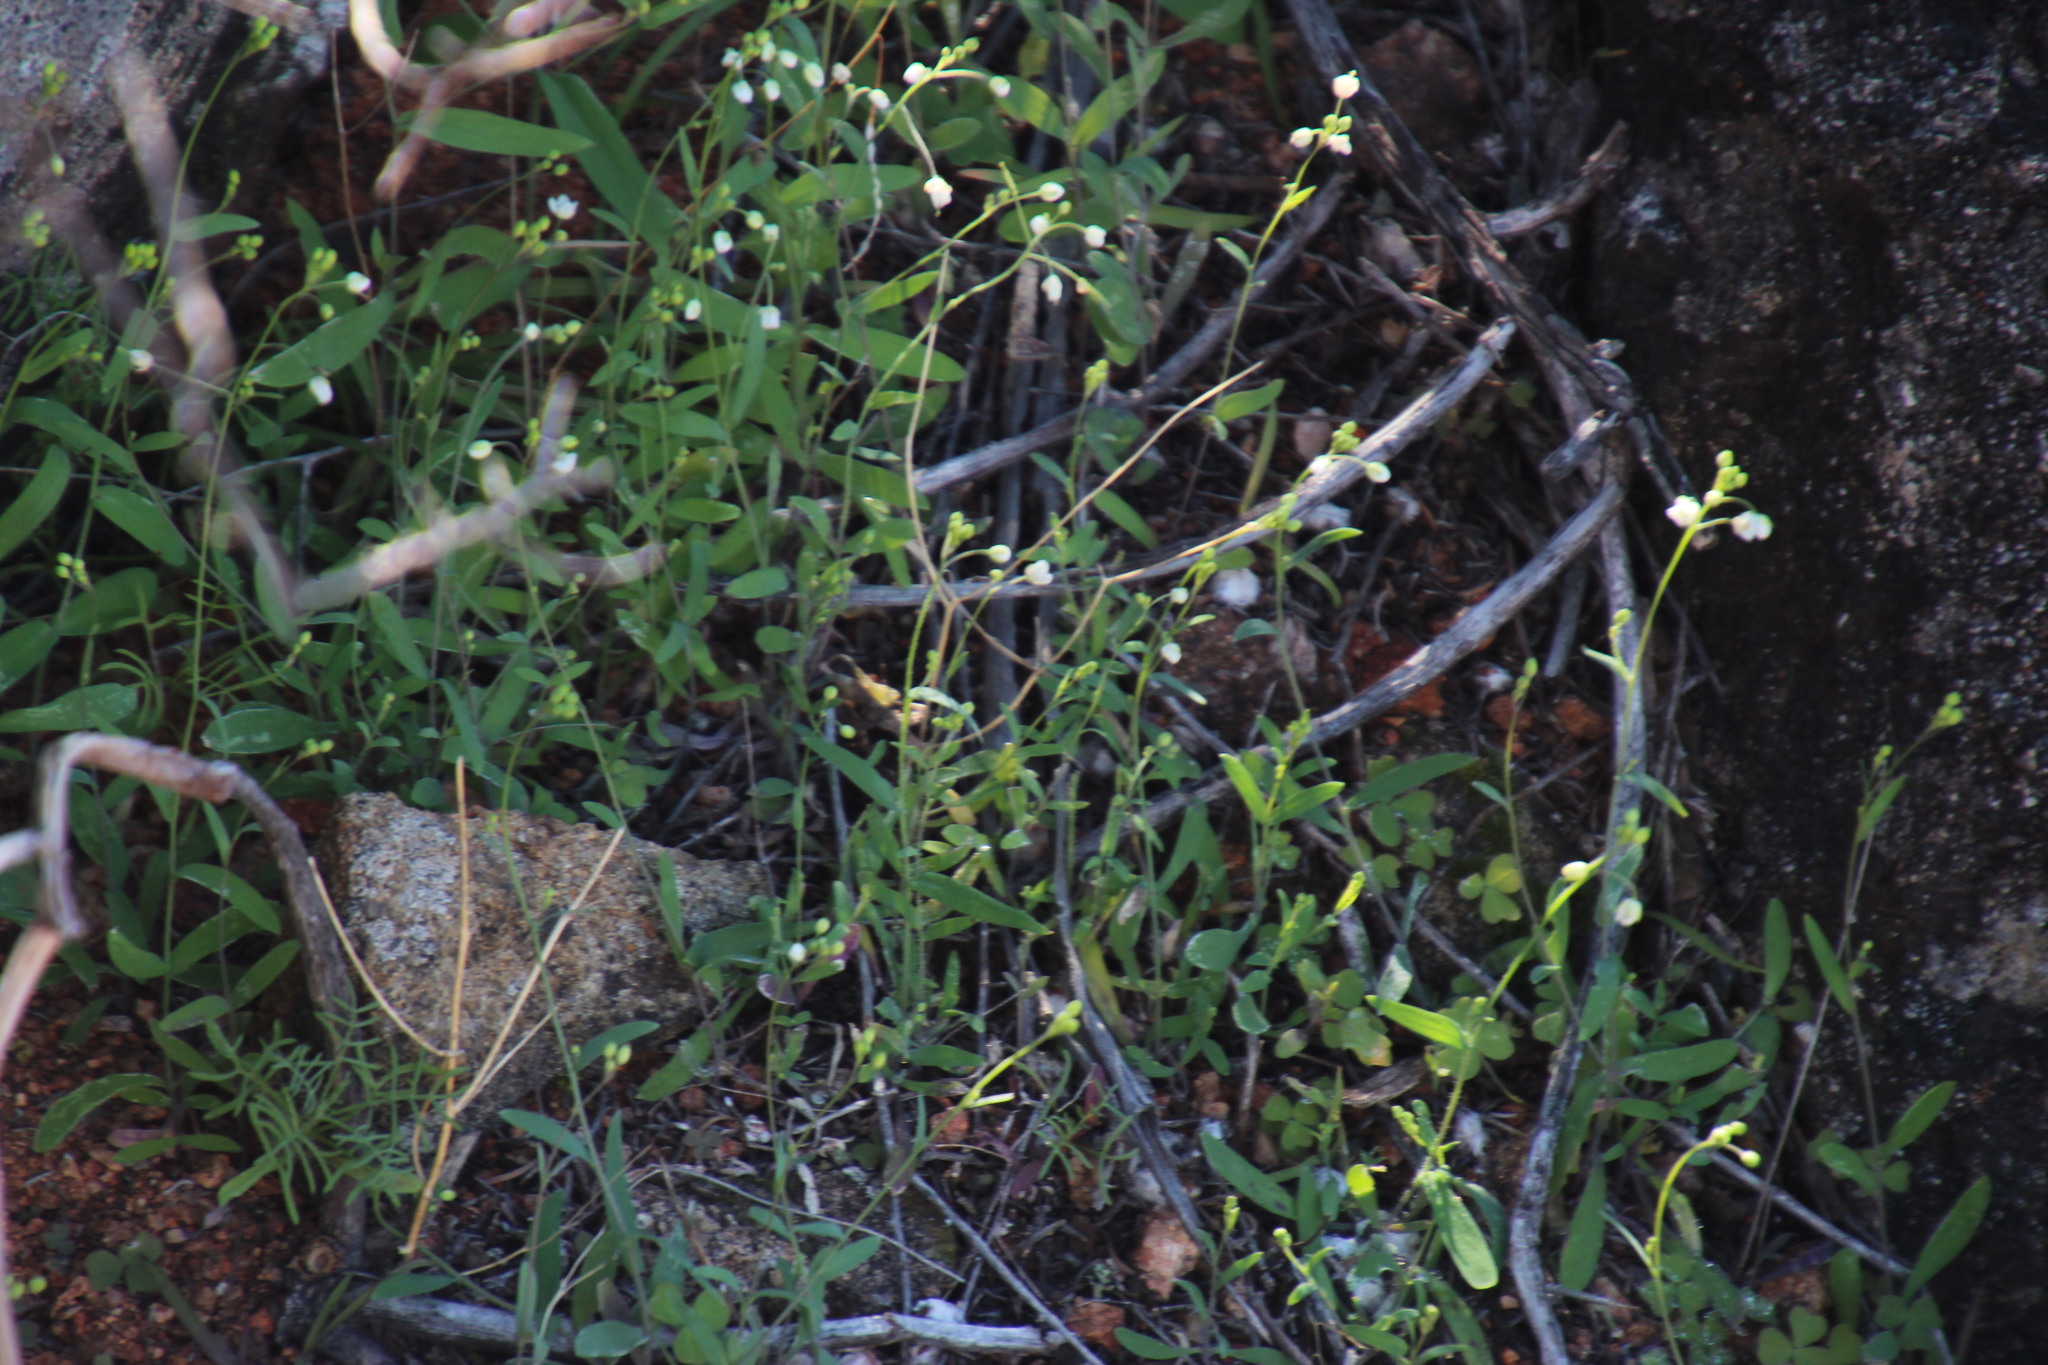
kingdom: Plantae
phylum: Tracheophyta
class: Magnoliopsida
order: Brassicales
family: Brassicaceae
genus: Heliophila
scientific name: Heliophila amplexicaulis
